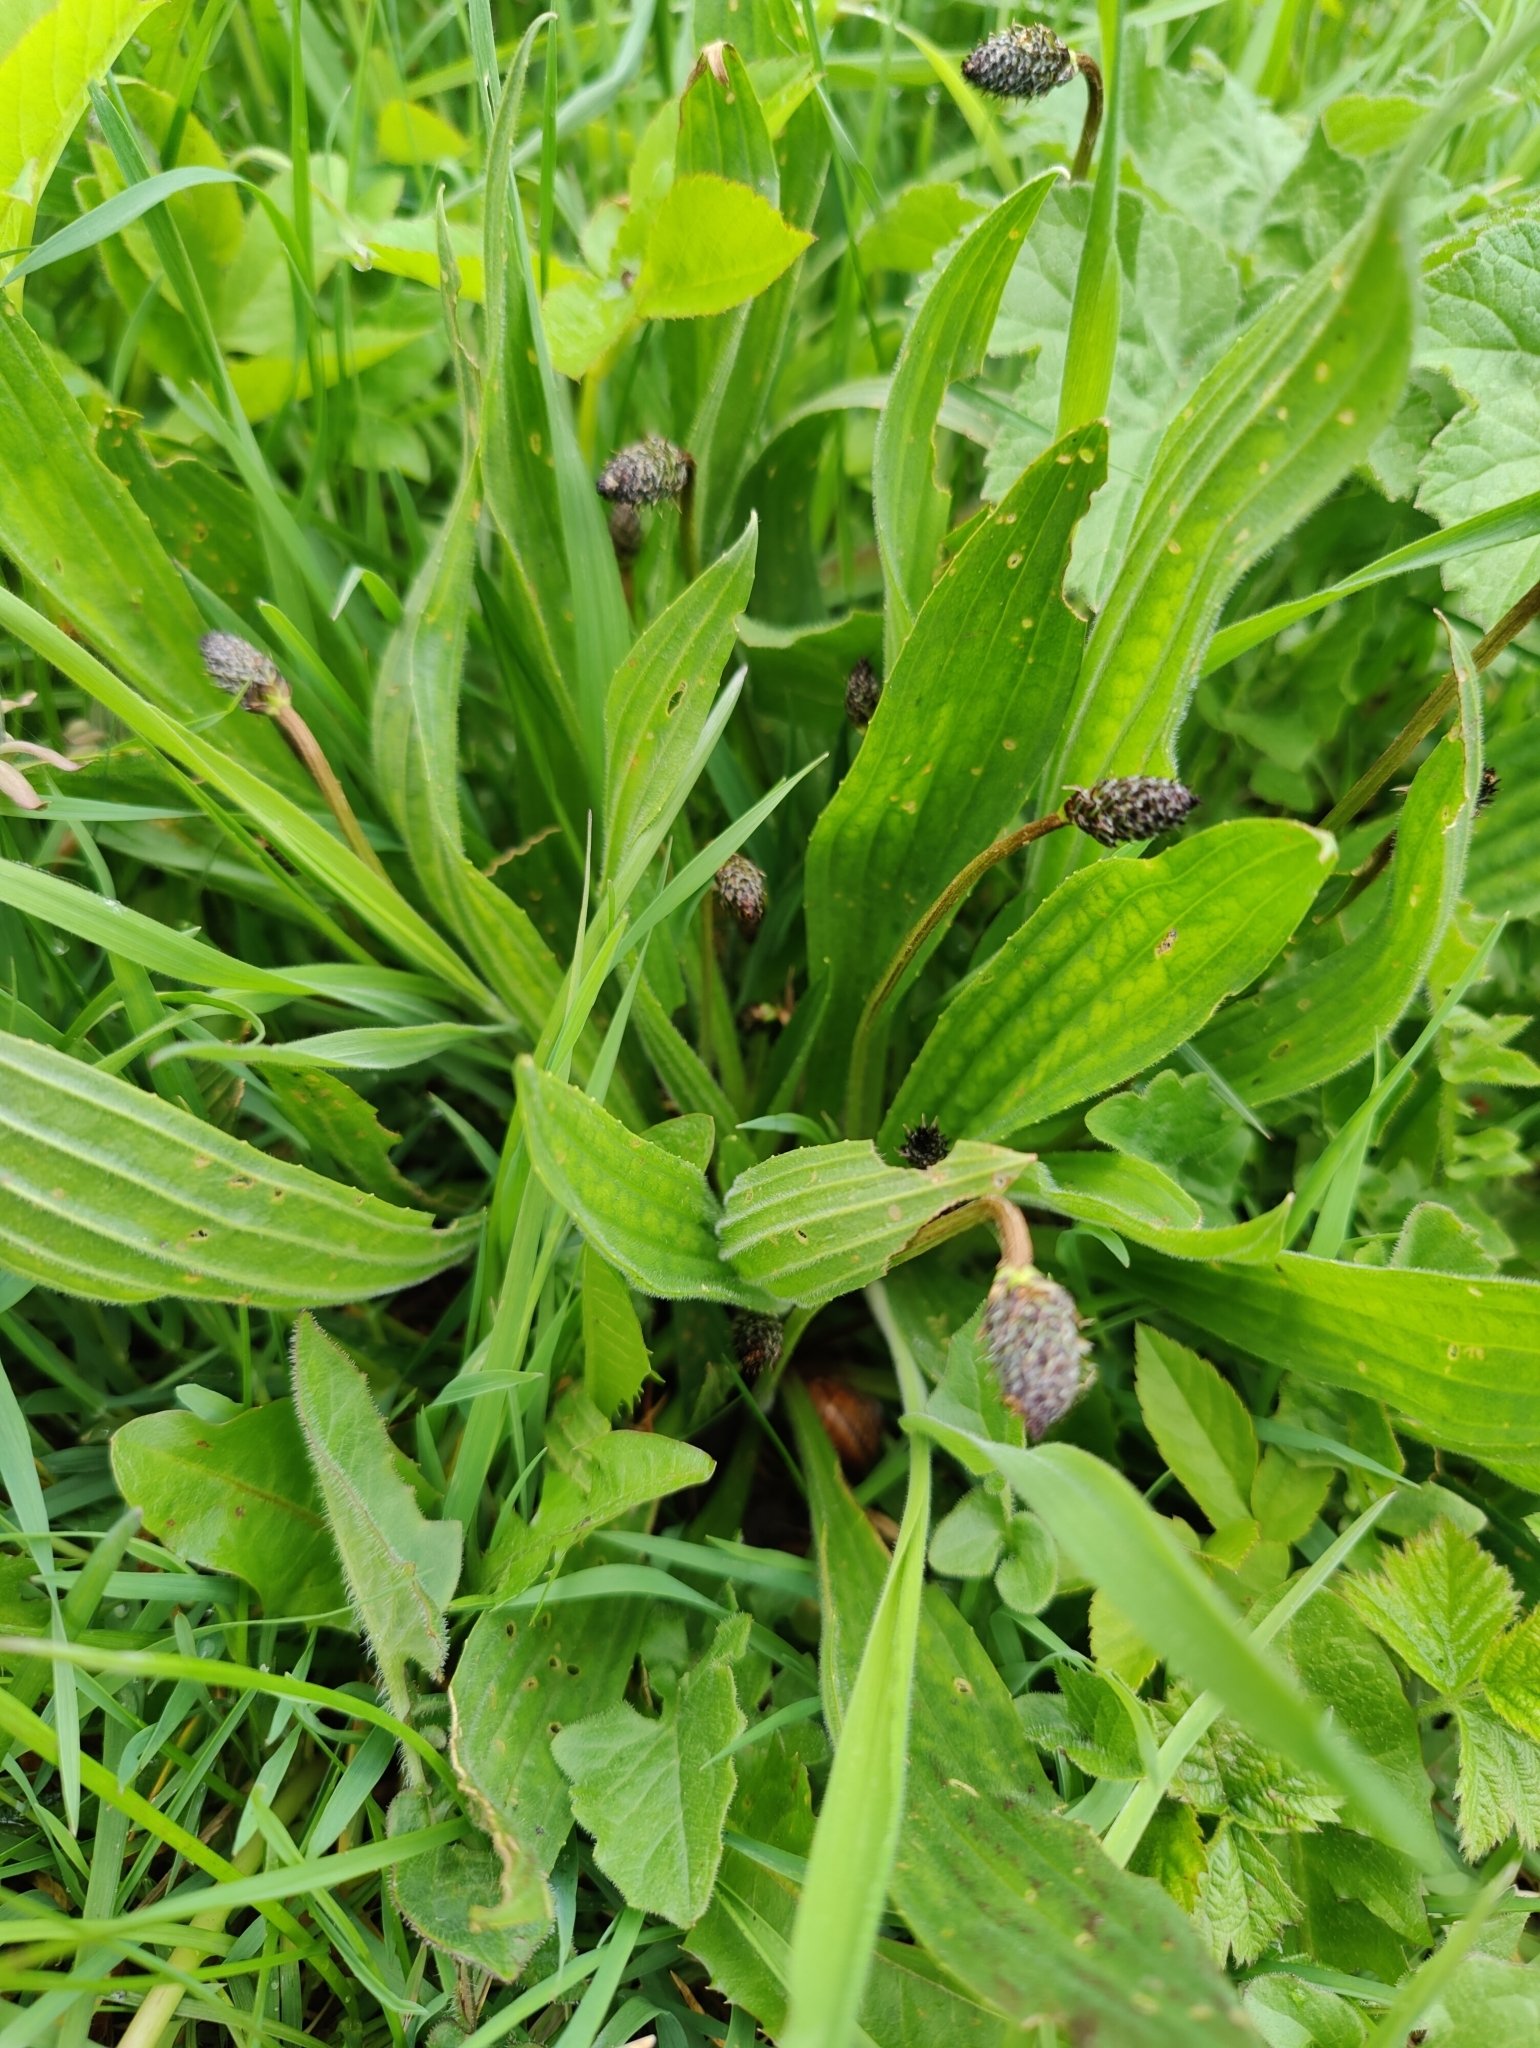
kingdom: Plantae
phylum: Tracheophyta
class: Magnoliopsida
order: Lamiales
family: Plantaginaceae
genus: Plantago
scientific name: Plantago lanceolata
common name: Ribwort plantain
